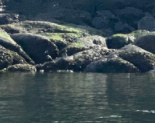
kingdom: Animalia
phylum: Chordata
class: Aves
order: Anseriformes
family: Anatidae
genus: Histrionicus
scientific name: Histrionicus histrionicus
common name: Harlequin duck
